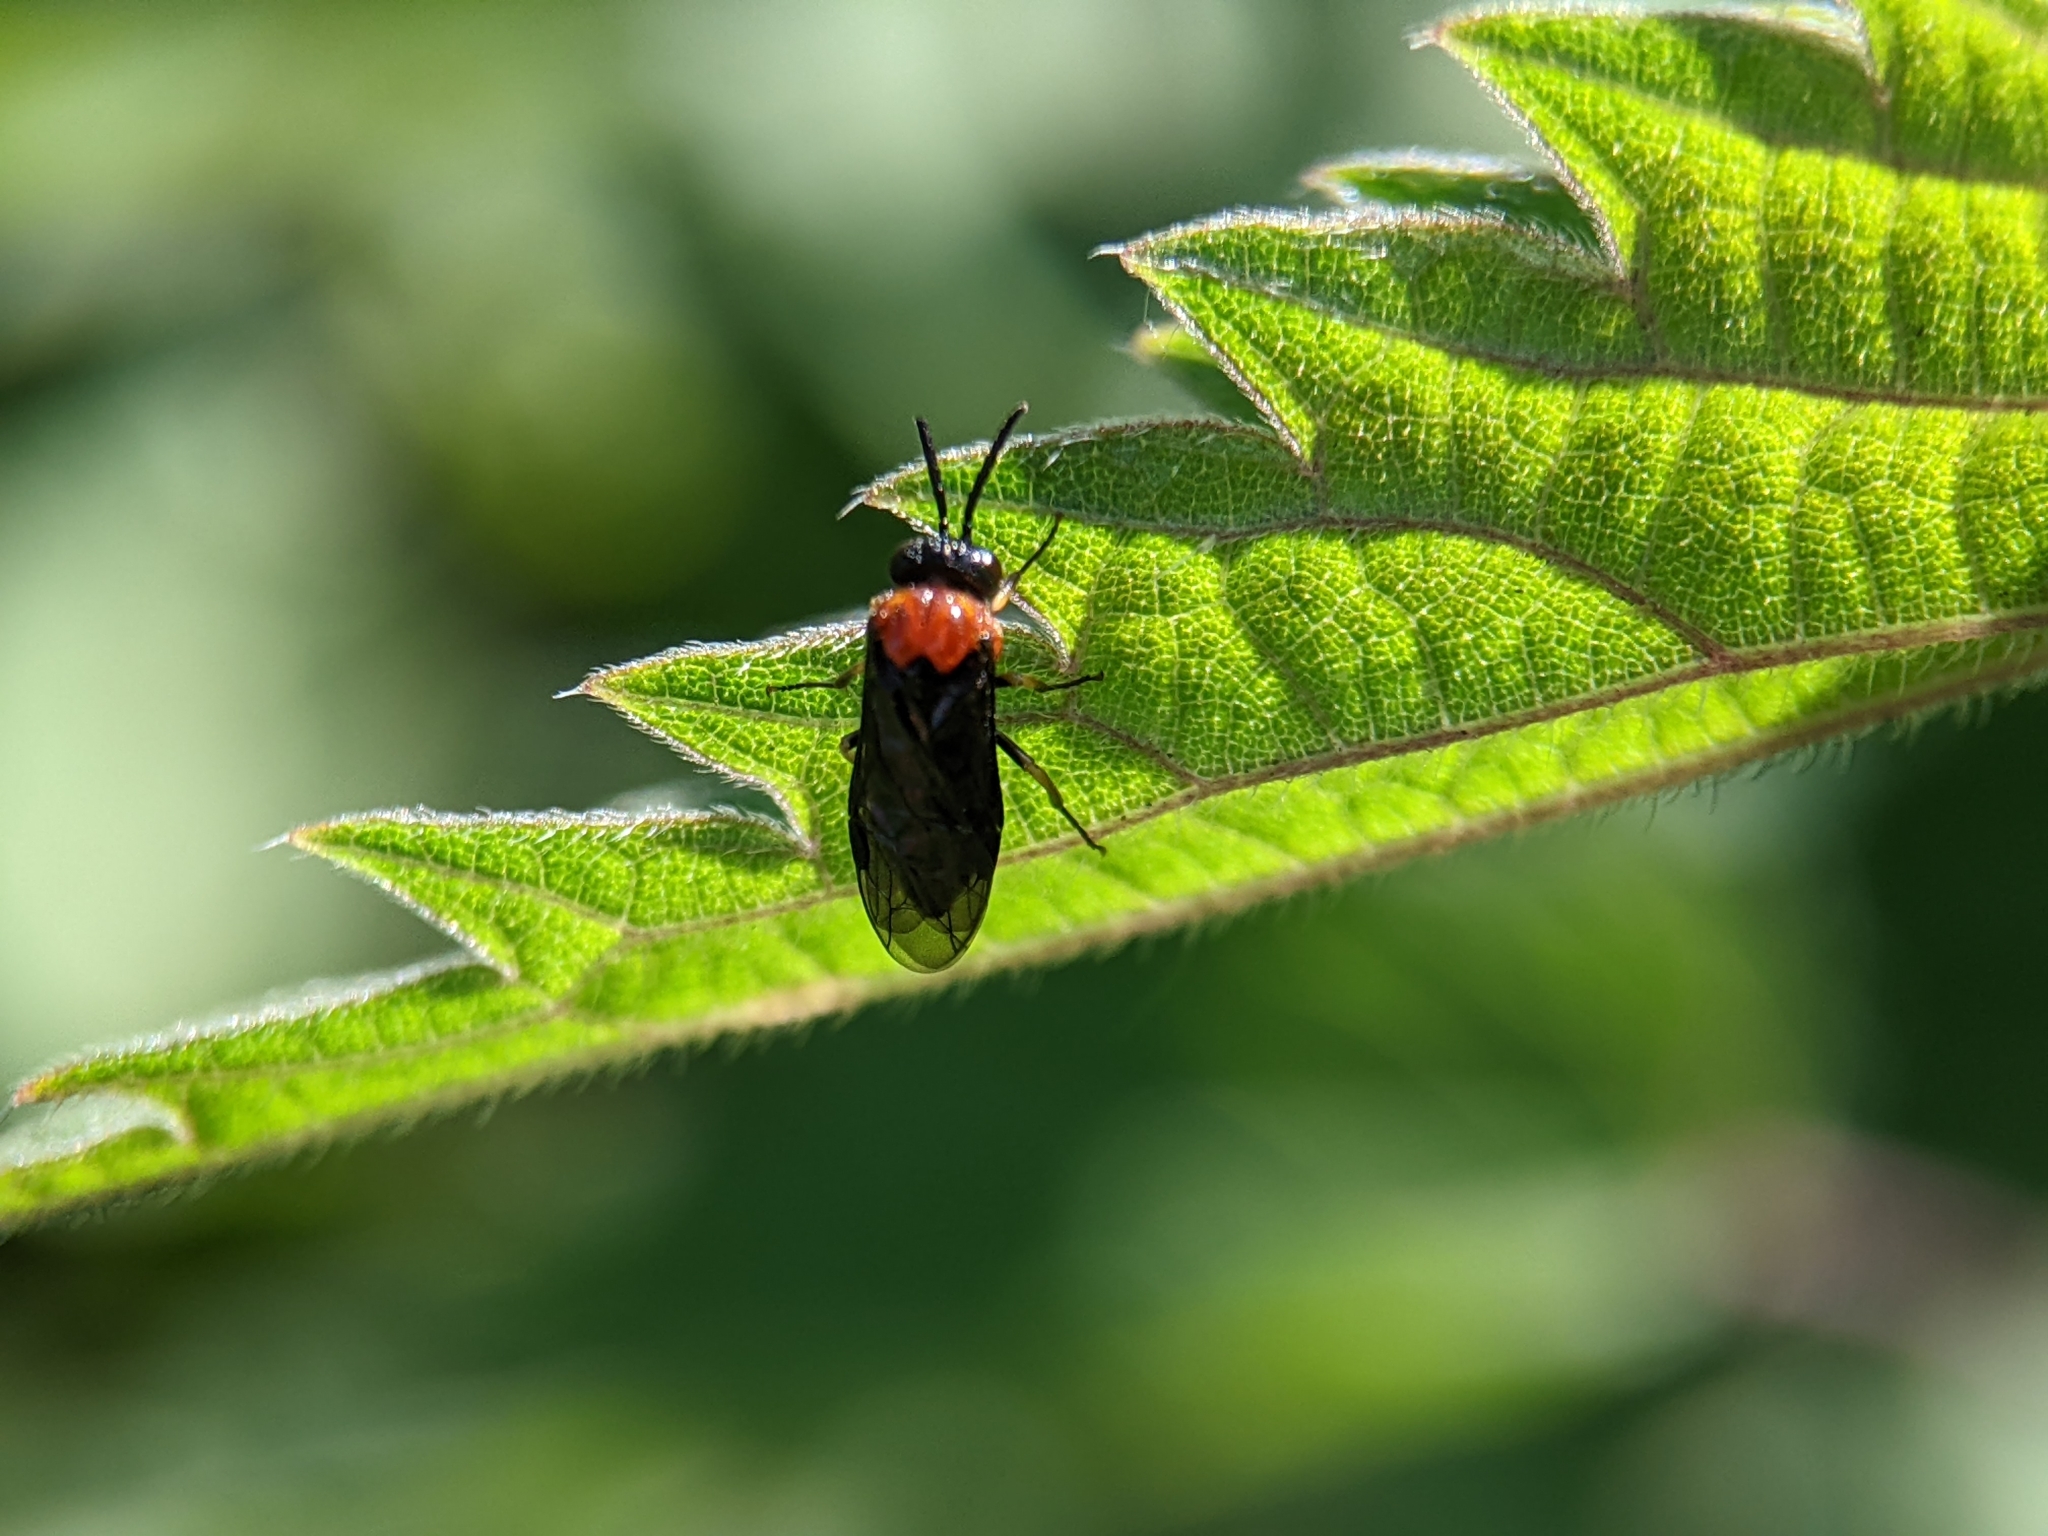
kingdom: Animalia
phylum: Arthropoda
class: Insecta
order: Hymenoptera
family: Tenthredinidae
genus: Eutomostethus
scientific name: Eutomostethus ephippium
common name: Tenthredid wasp
